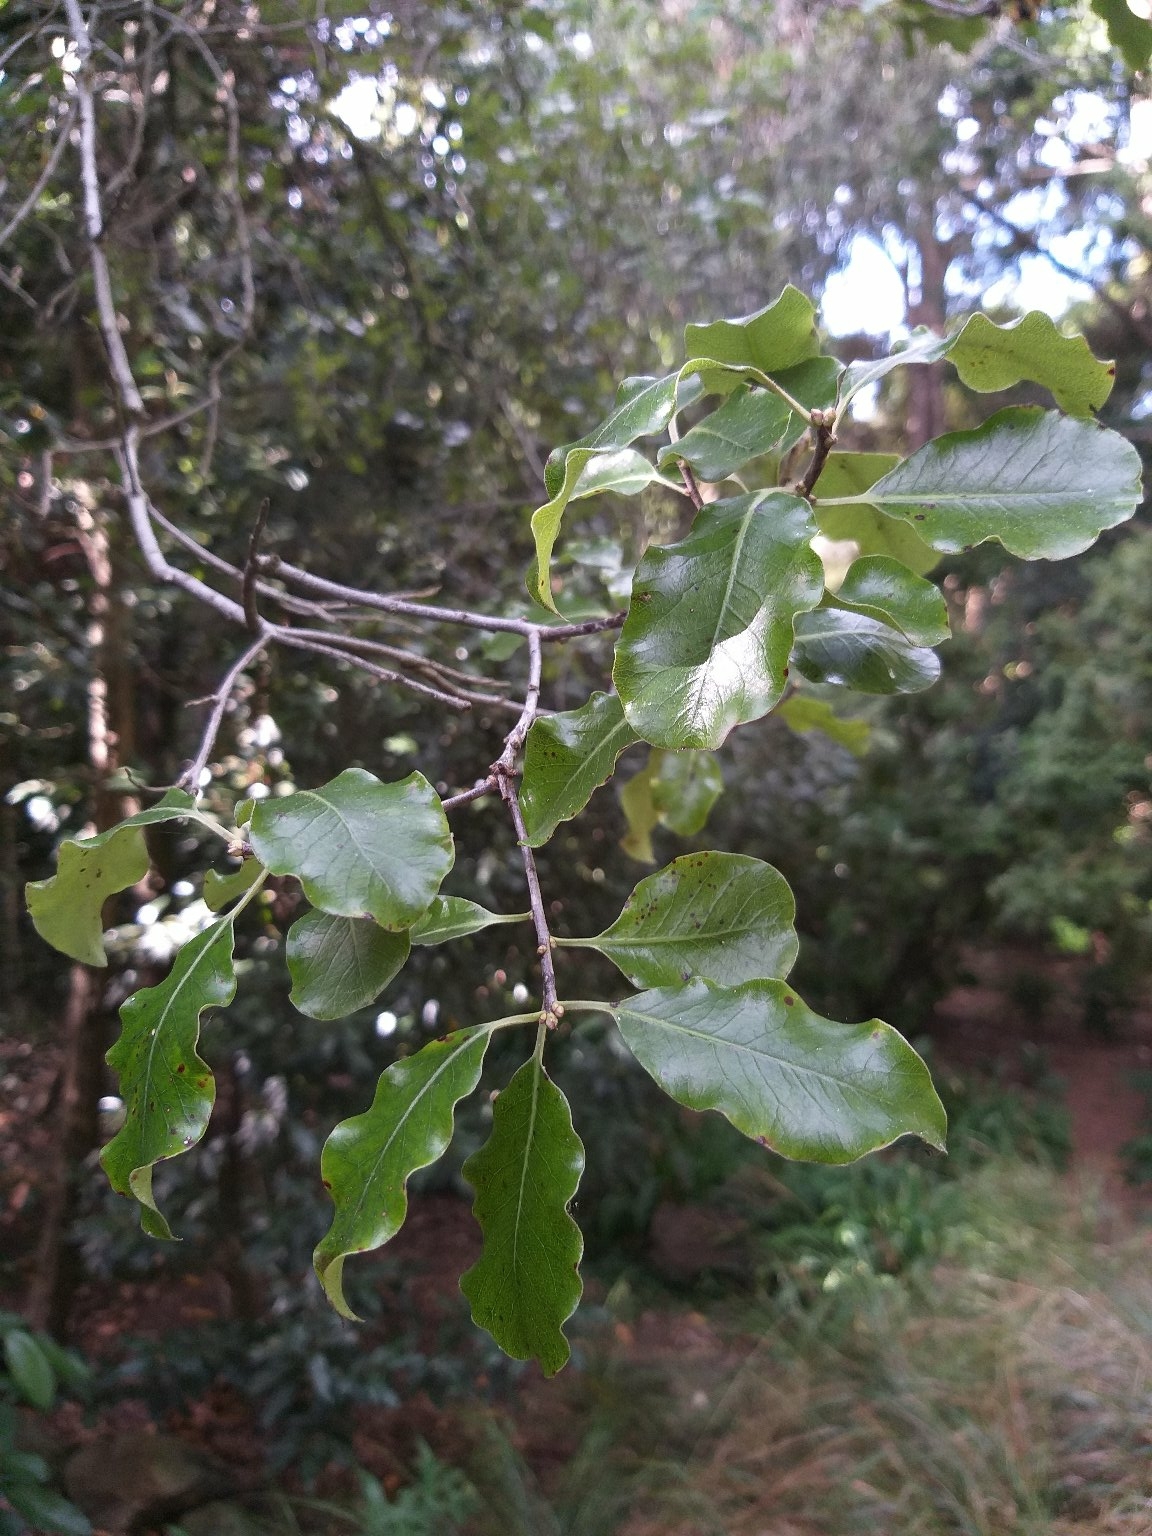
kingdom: Plantae
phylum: Tracheophyta
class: Magnoliopsida
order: Apiales
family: Pittosporaceae
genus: Pittosporum
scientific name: Pittosporum tenuifolium
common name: Kohuhu
